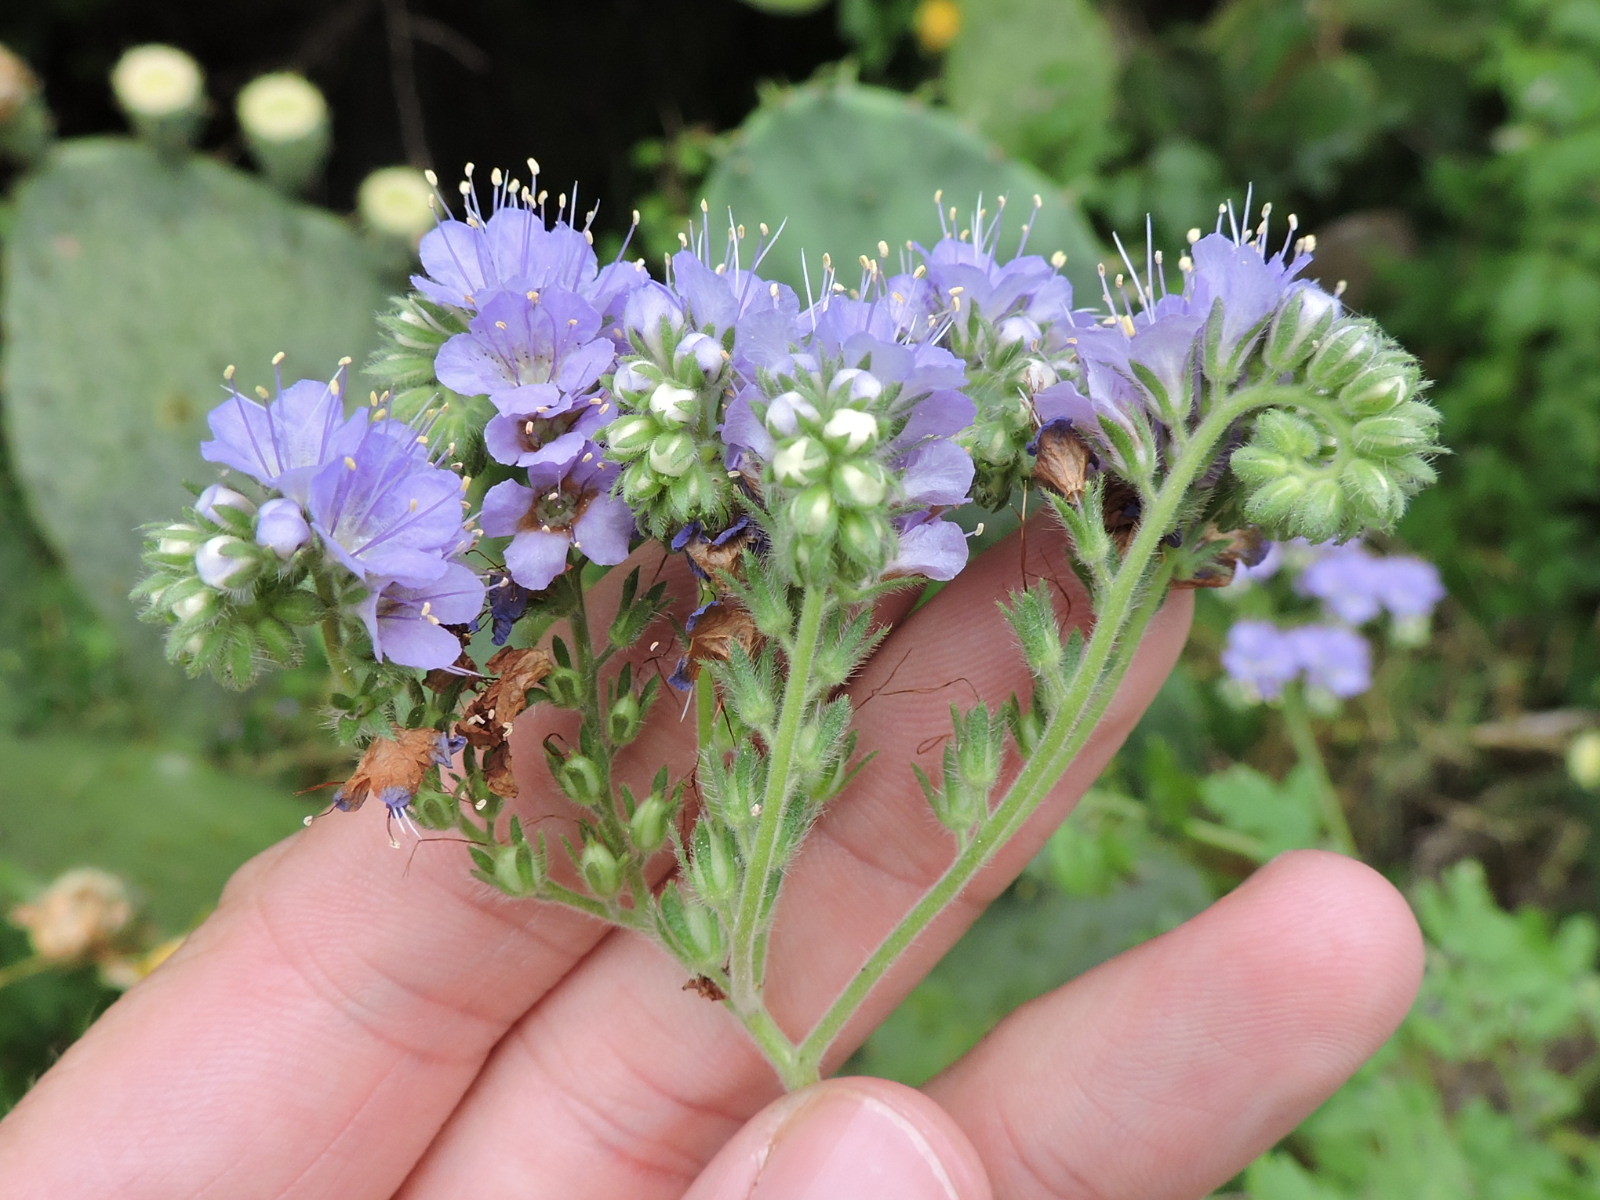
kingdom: Plantae
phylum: Tracheophyta
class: Magnoliopsida
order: Boraginales
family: Hydrophyllaceae
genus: Phacelia
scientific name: Phacelia congesta
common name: Blue curls
